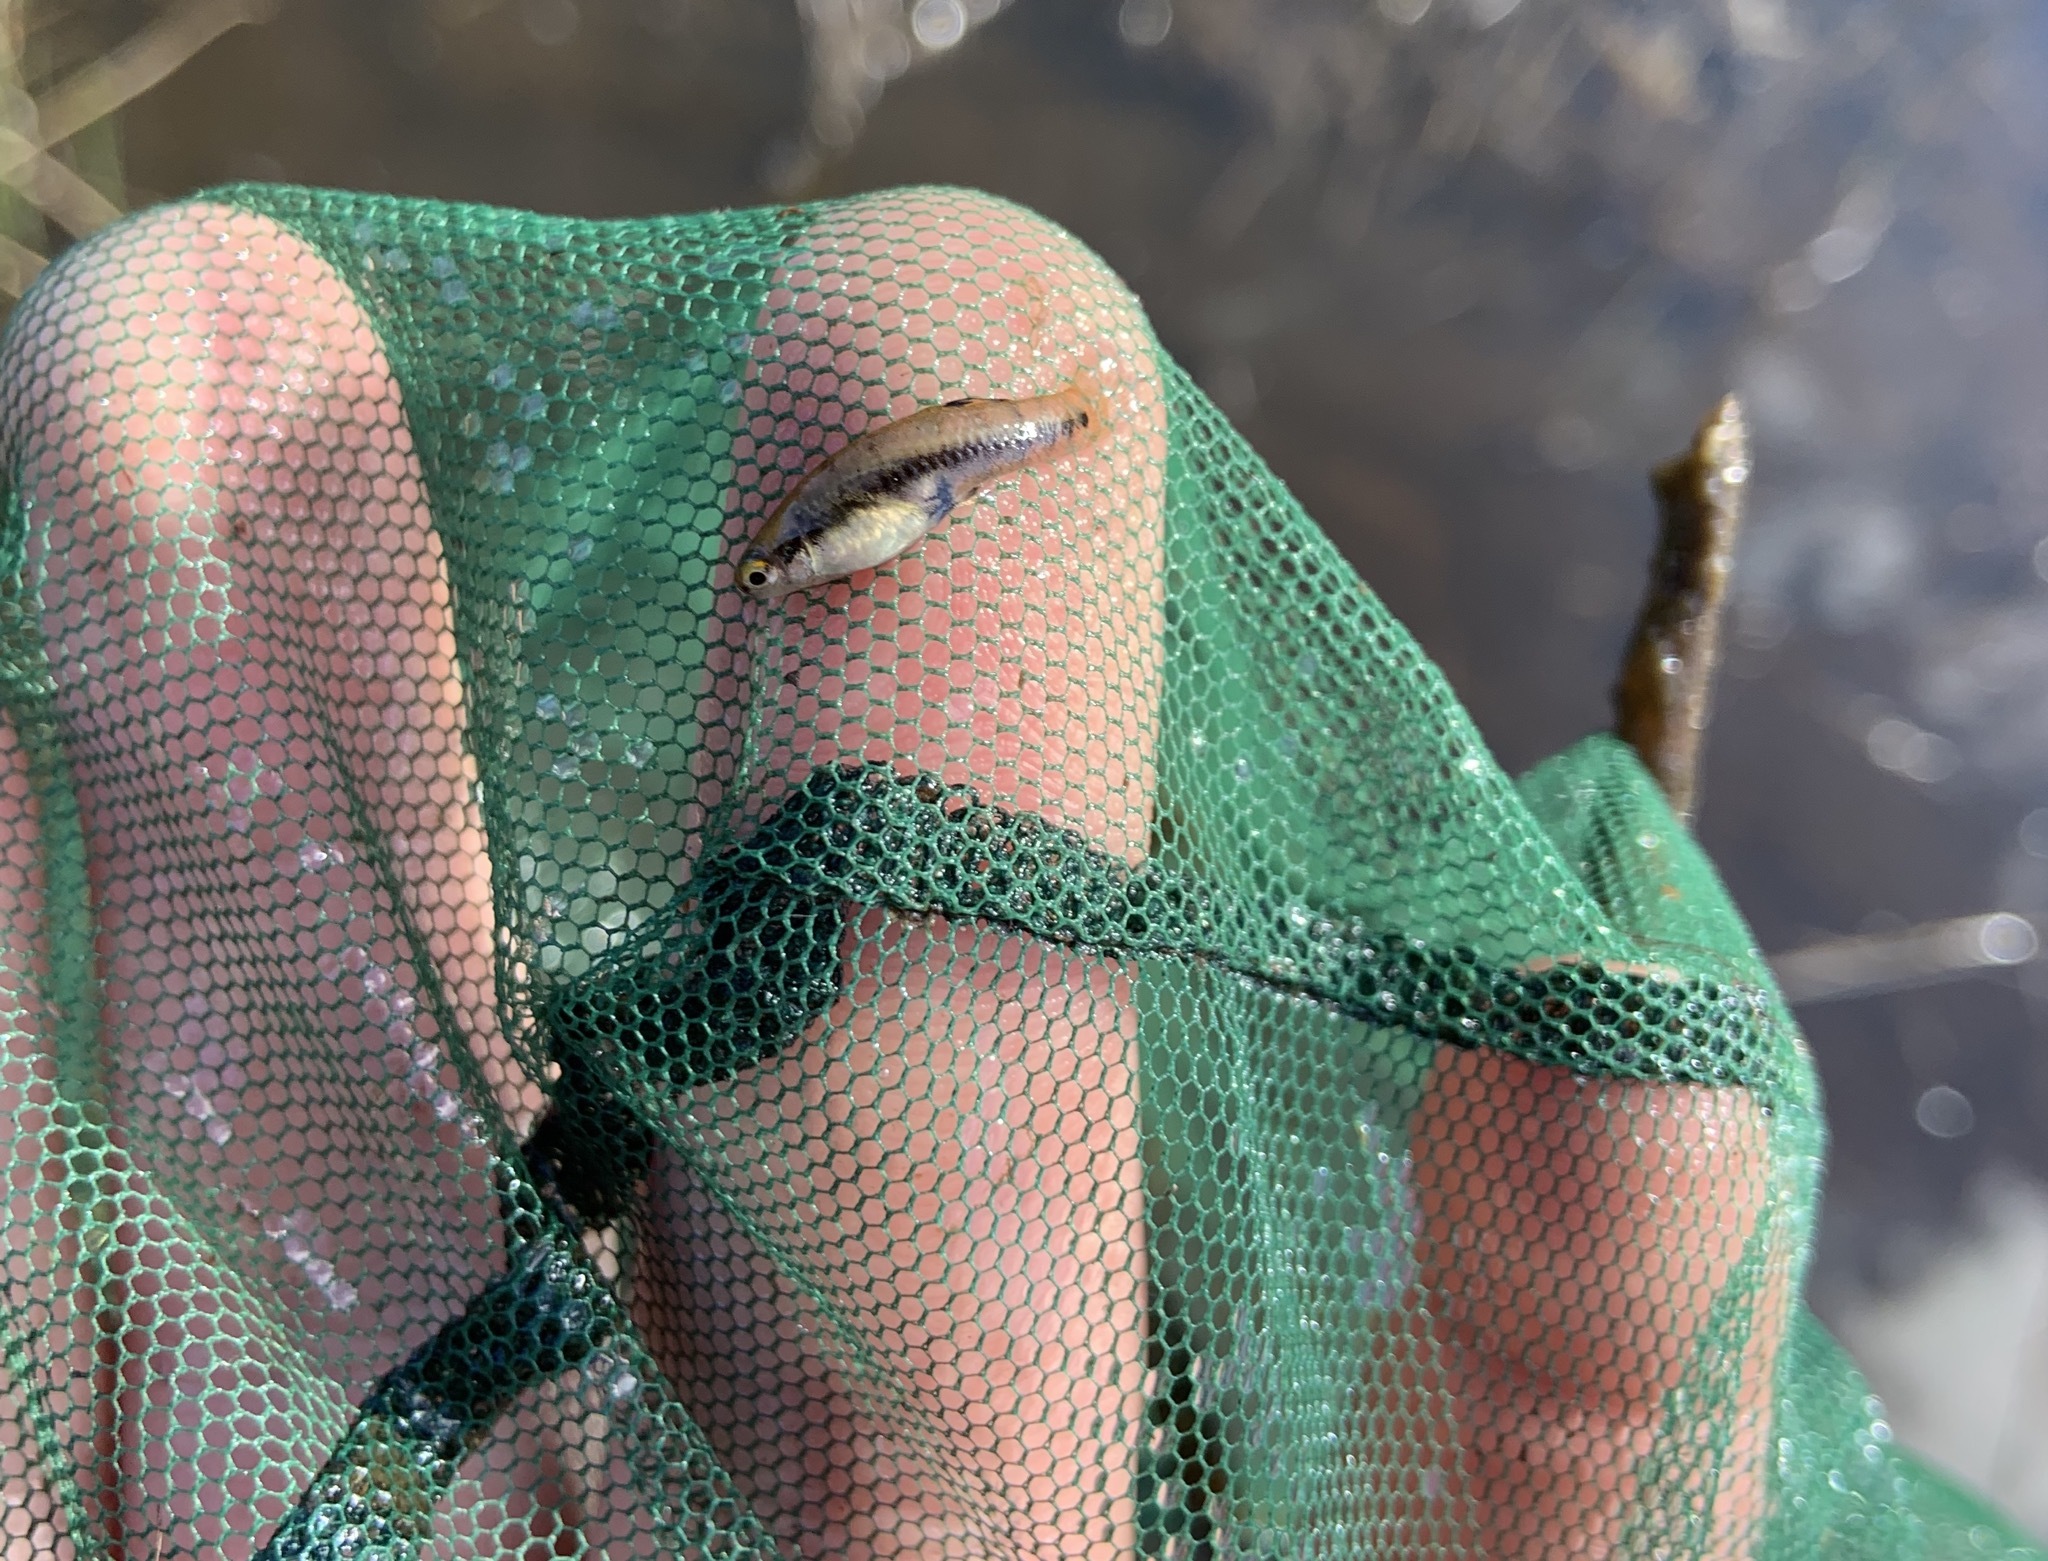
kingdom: Animalia
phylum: Chordata
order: Cyprinodontiformes
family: Poeciliidae
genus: Heterandria
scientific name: Heterandria formosa
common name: Least killifish
